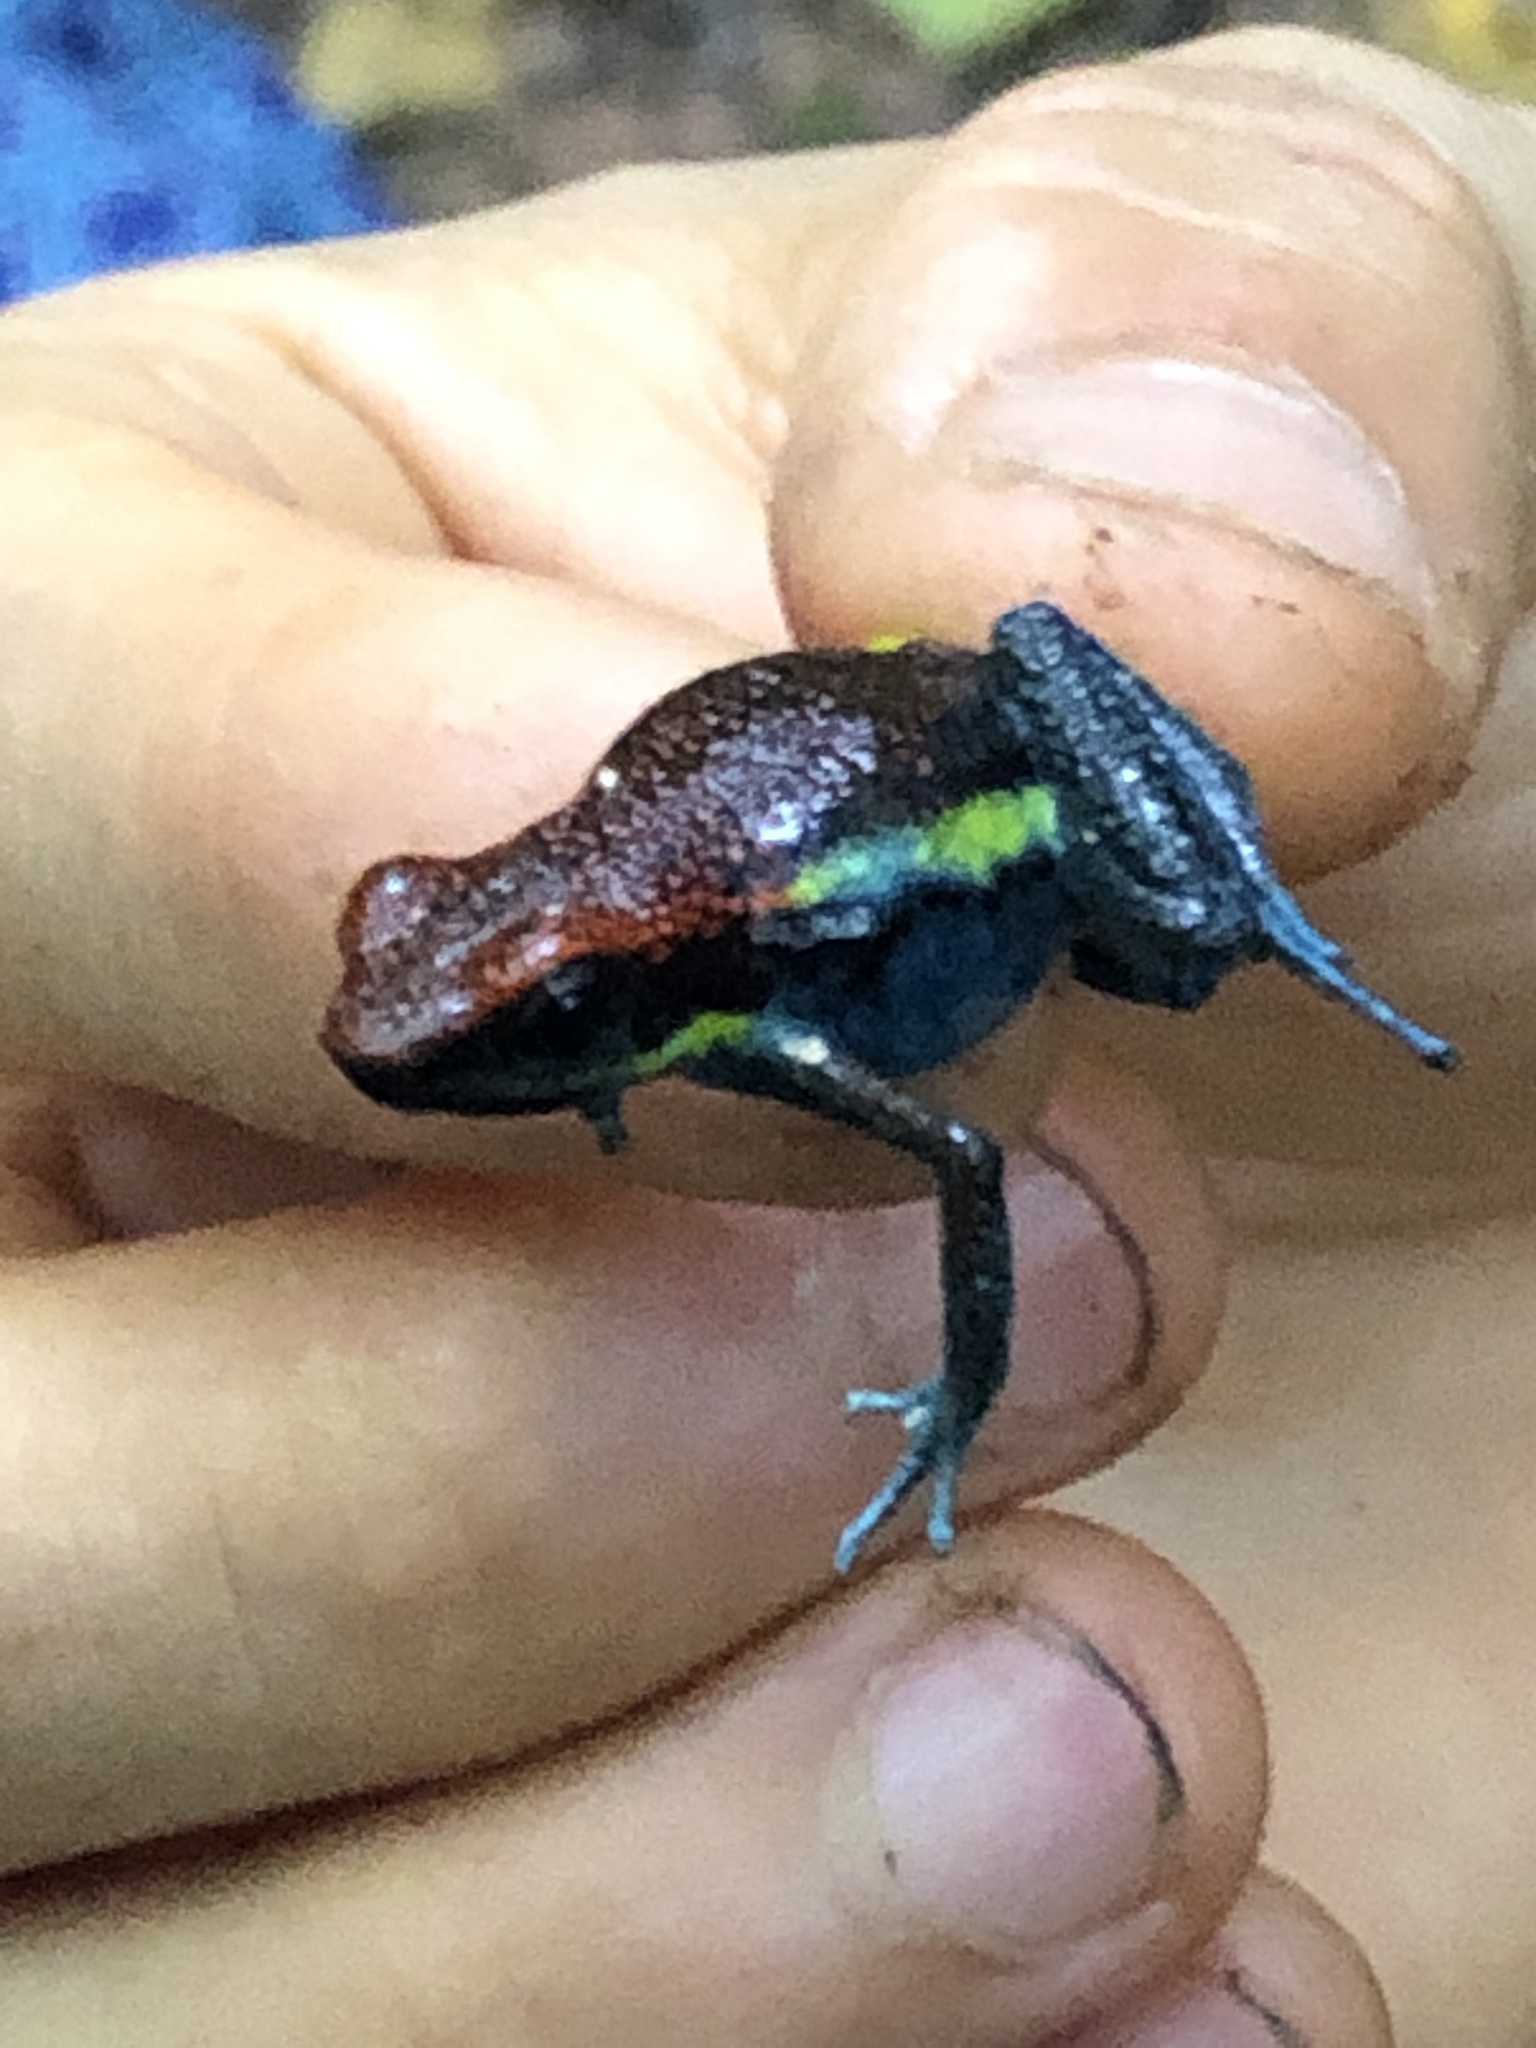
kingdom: Animalia
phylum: Chordata
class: Amphibia
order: Anura
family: Dendrobatidae
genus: Ameerega
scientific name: Ameerega macero
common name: Manu poison frog
